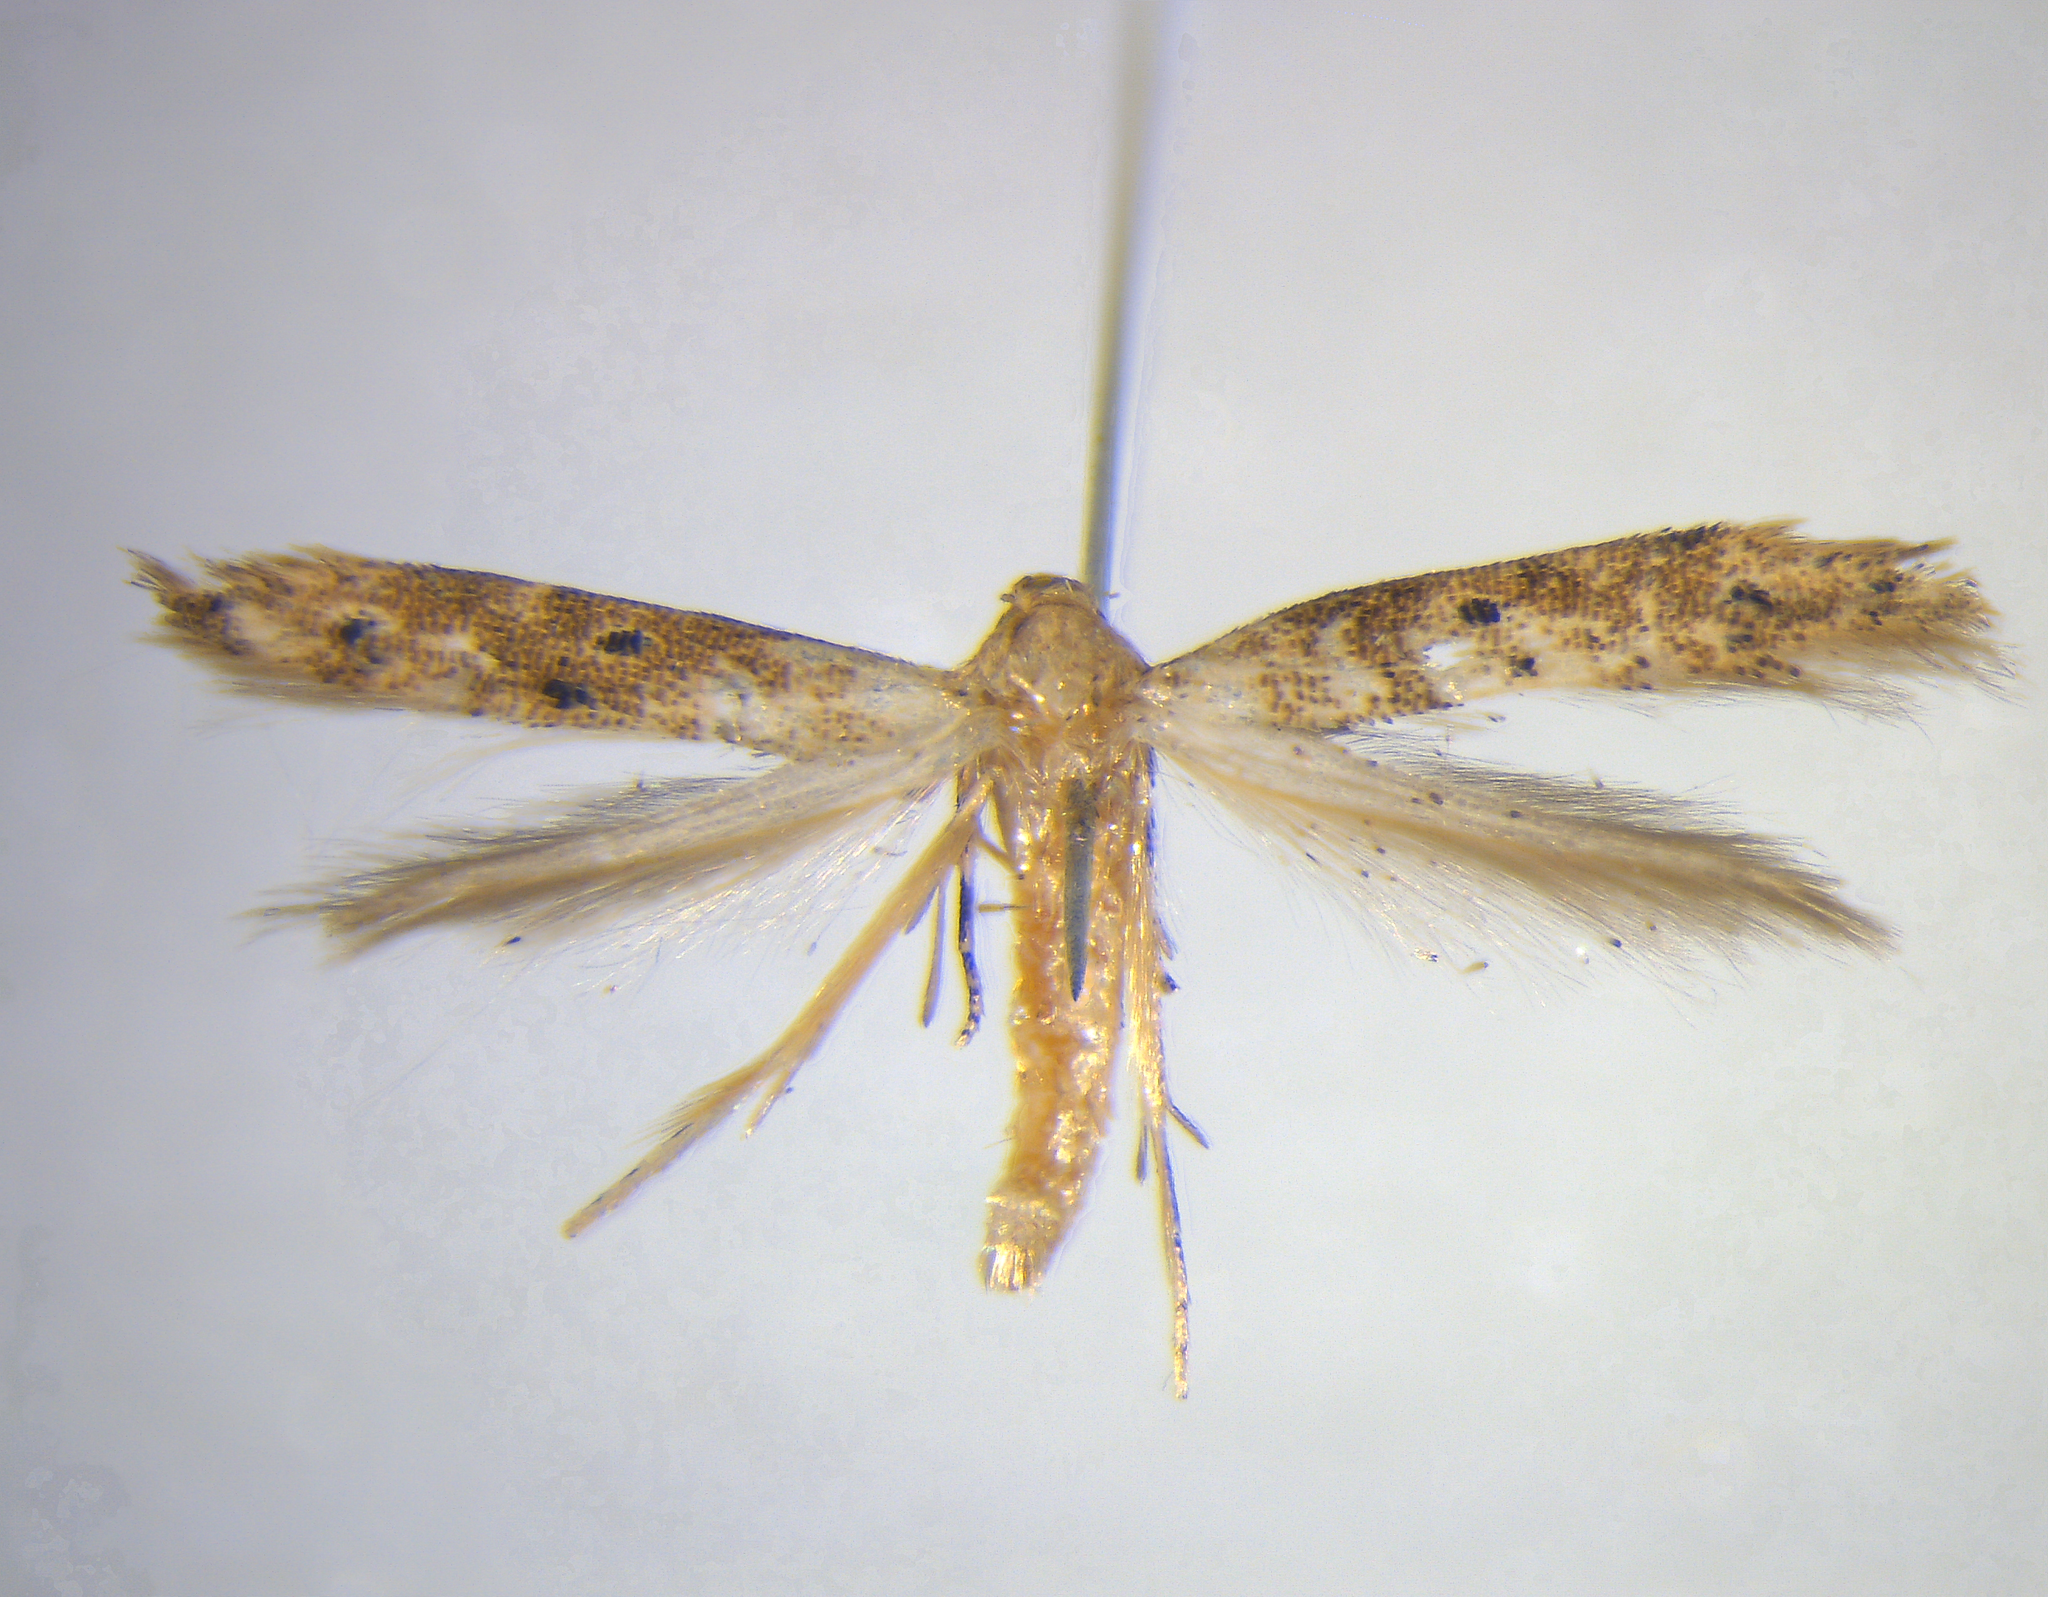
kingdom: Animalia
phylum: Arthropoda
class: Insecta
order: Lepidoptera
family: Elachistidae
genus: Microcolona
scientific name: Microcolona limodes
